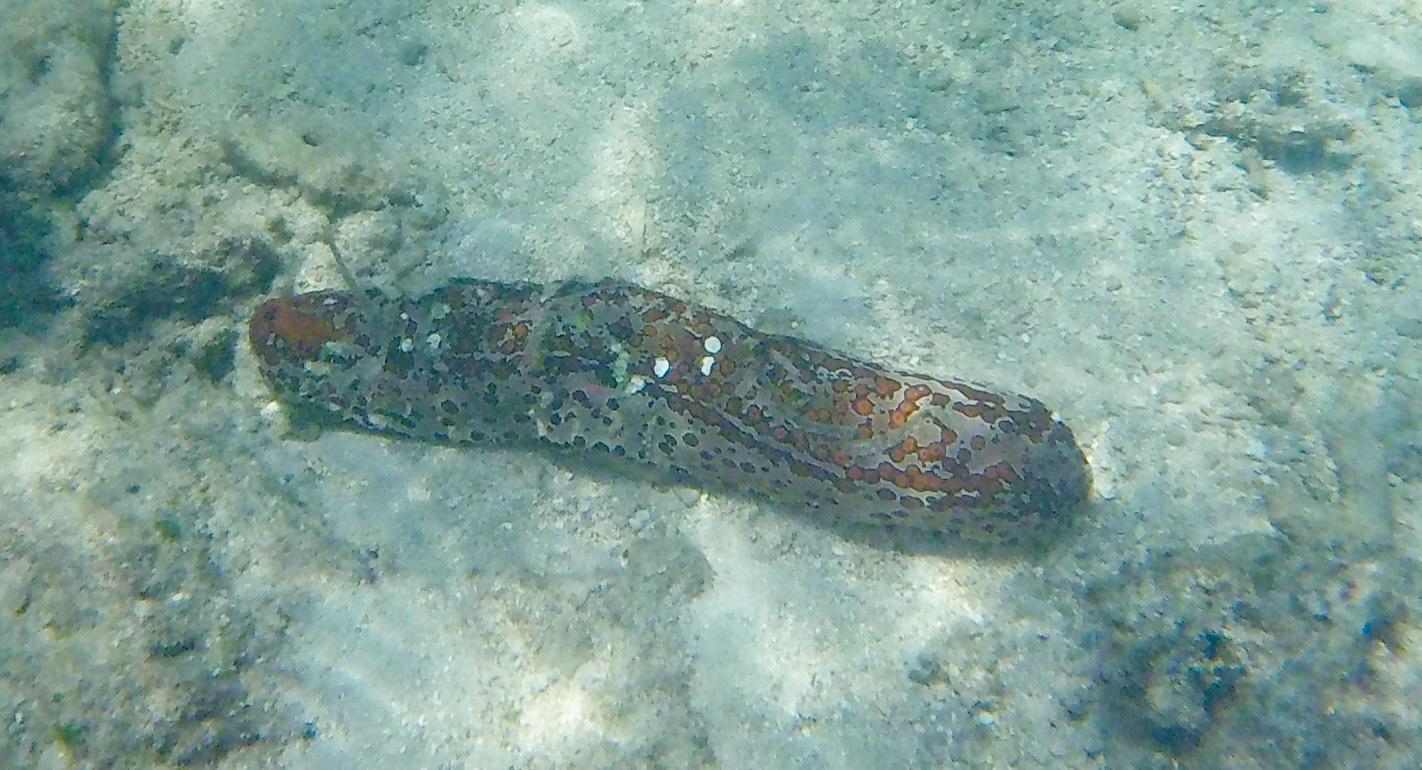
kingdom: Animalia
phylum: Echinodermata
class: Holothuroidea
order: Holothuriida
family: Holothuriidae
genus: Bohadschia
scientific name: Bohadschia argus
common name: Leopardfish
